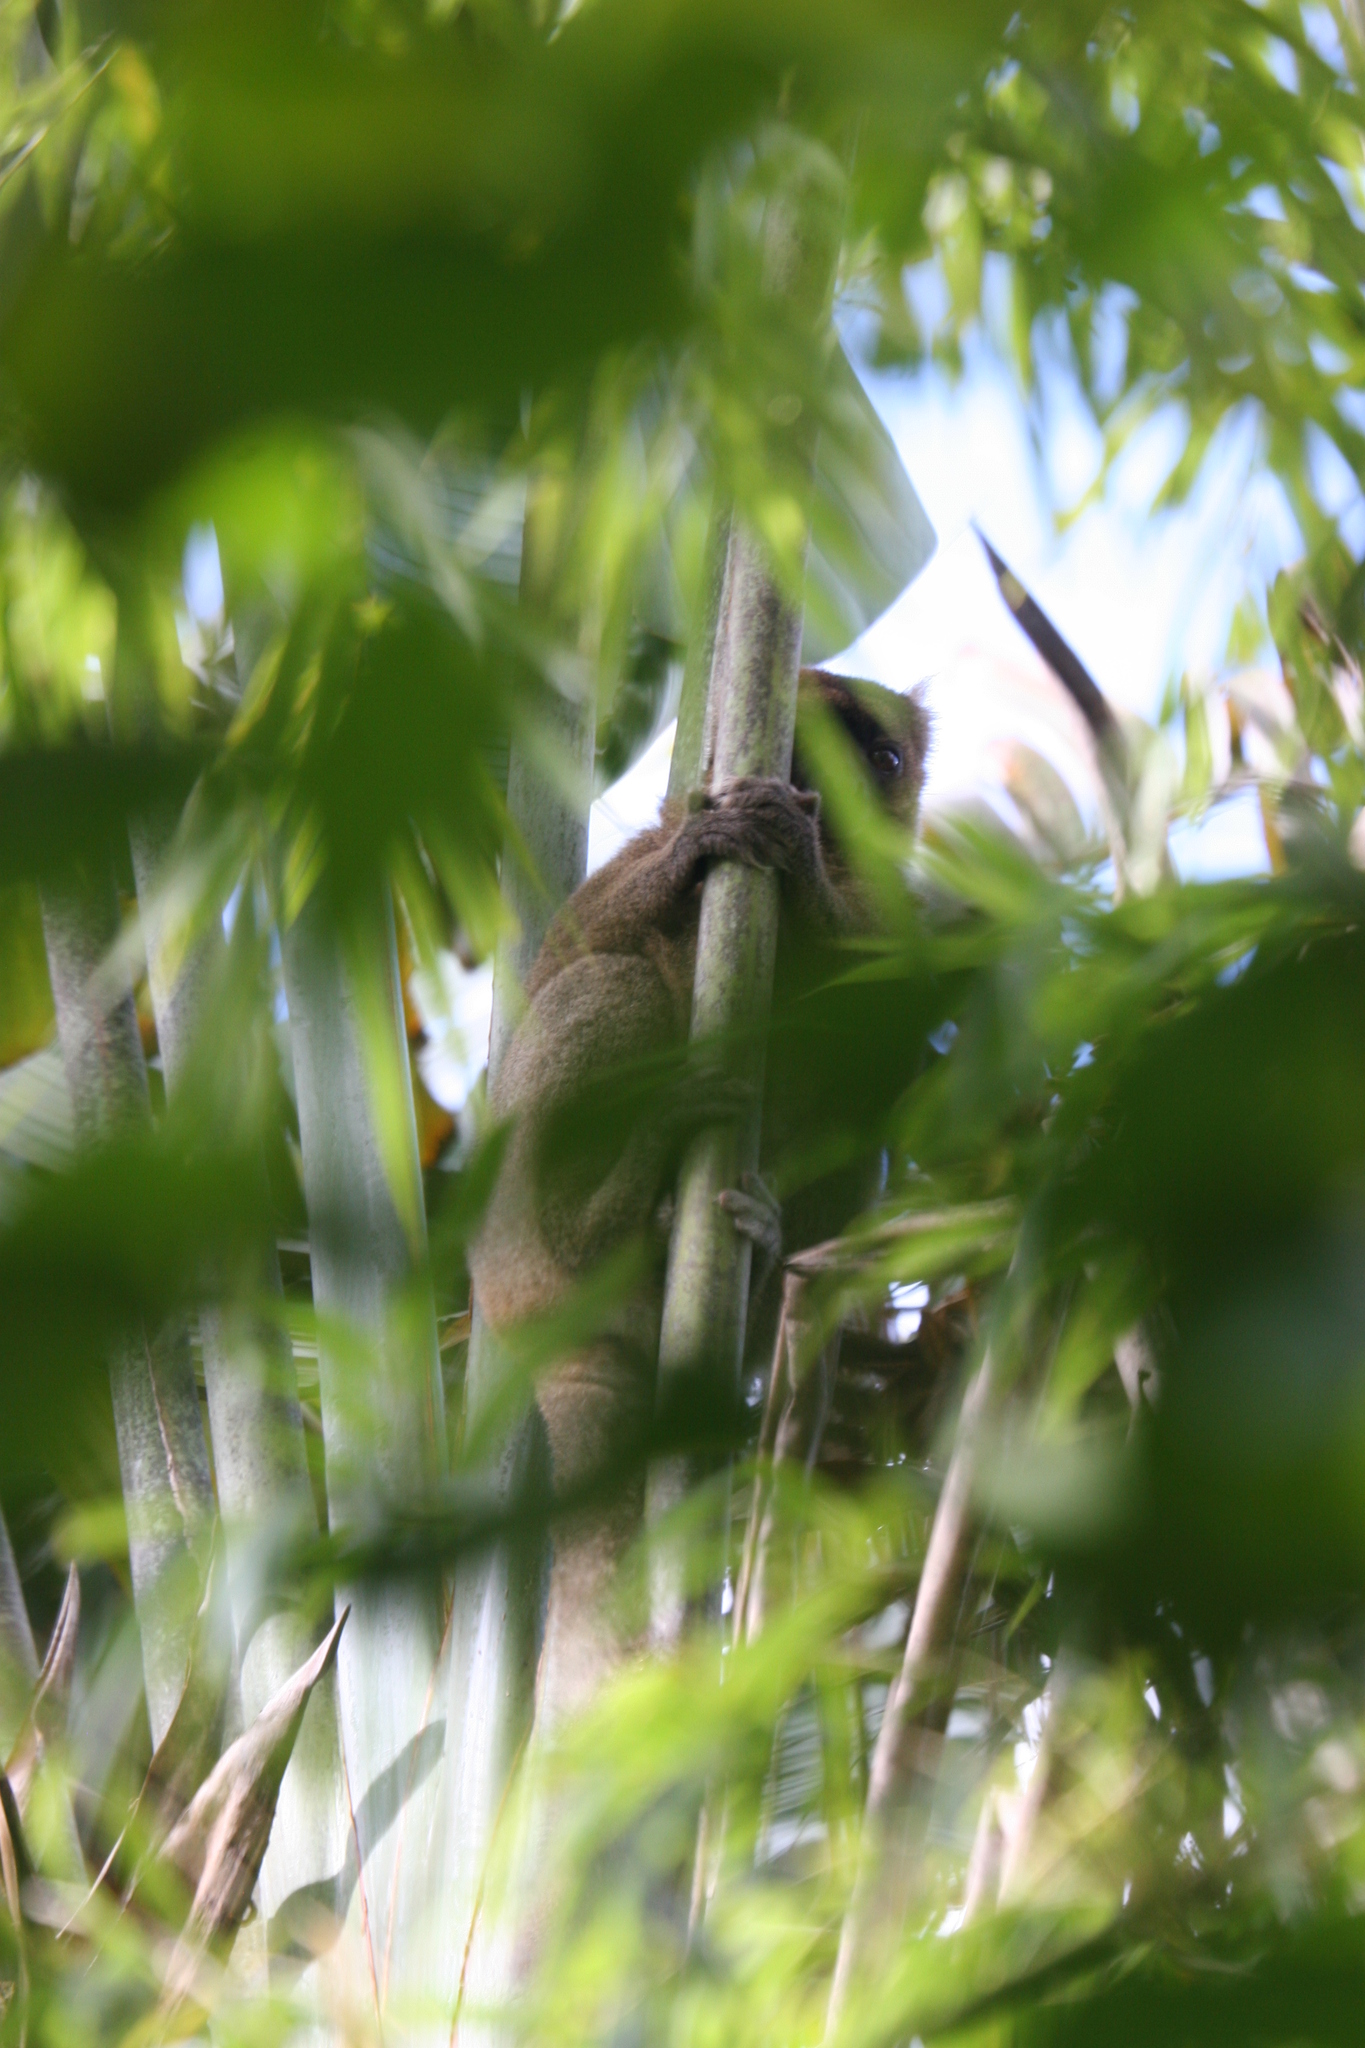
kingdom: Animalia
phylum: Chordata
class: Mammalia
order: Primates
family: Lemuridae
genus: Prolemur
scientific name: Prolemur simus
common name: Greater bamboo lemur
